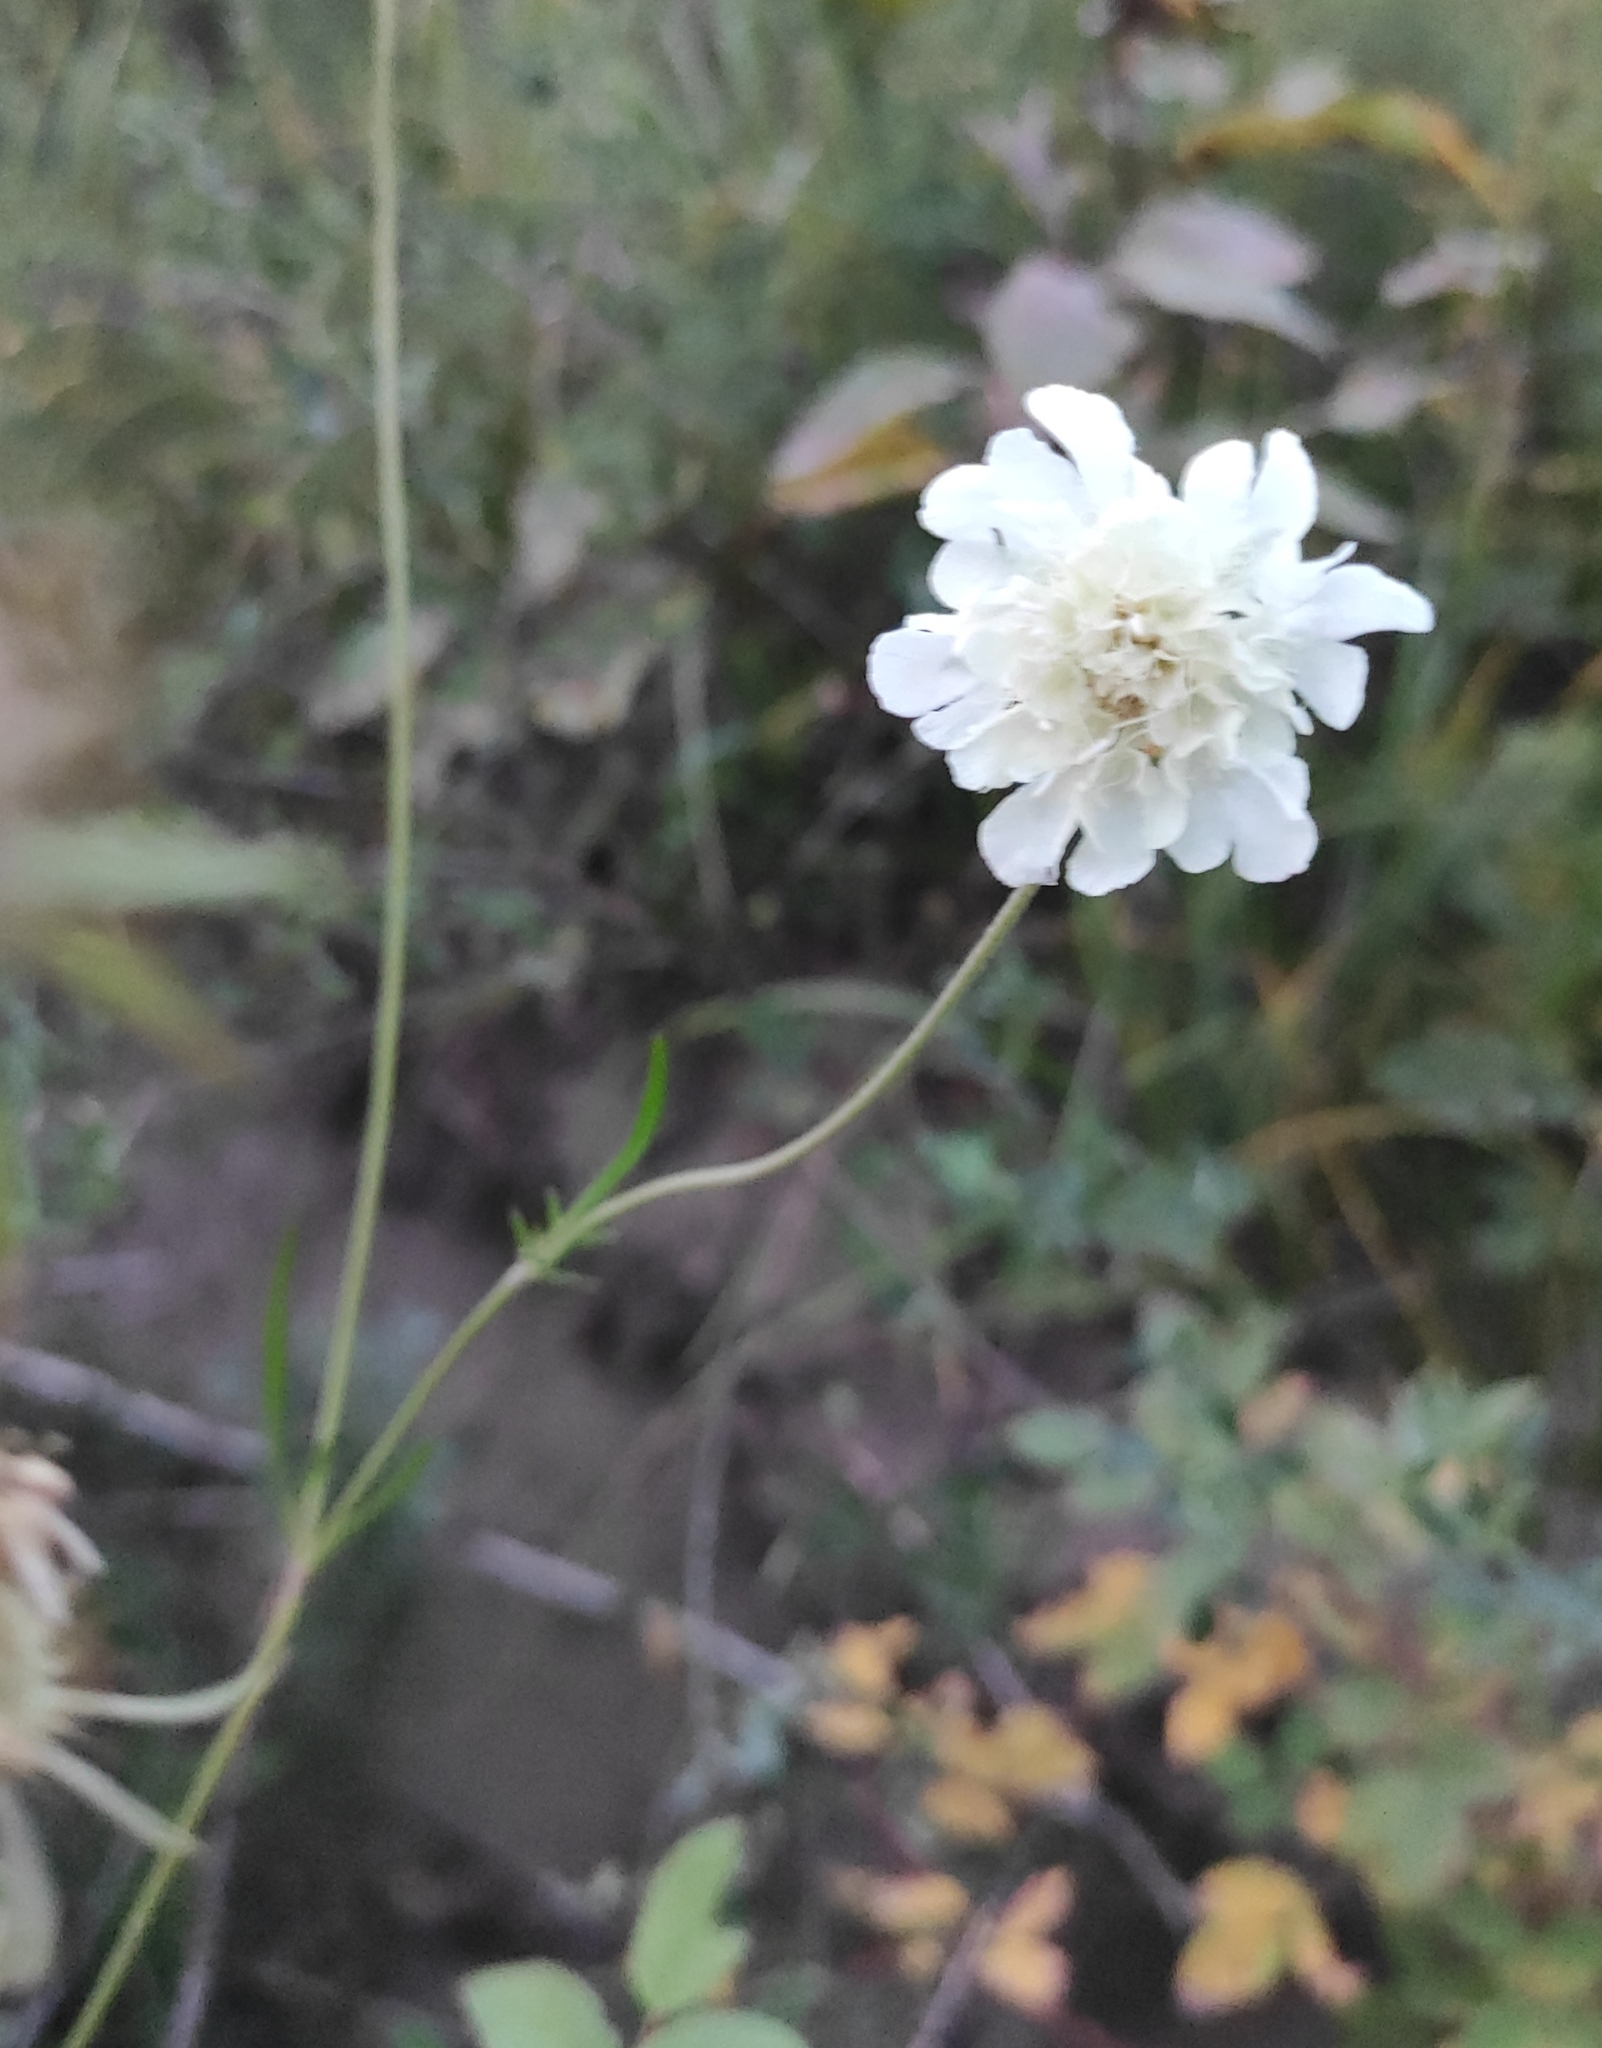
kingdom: Plantae
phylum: Tracheophyta
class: Magnoliopsida
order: Dipsacales
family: Caprifoliaceae
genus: Scabiosa
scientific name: Scabiosa ochroleuca
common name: Cream pincushions
